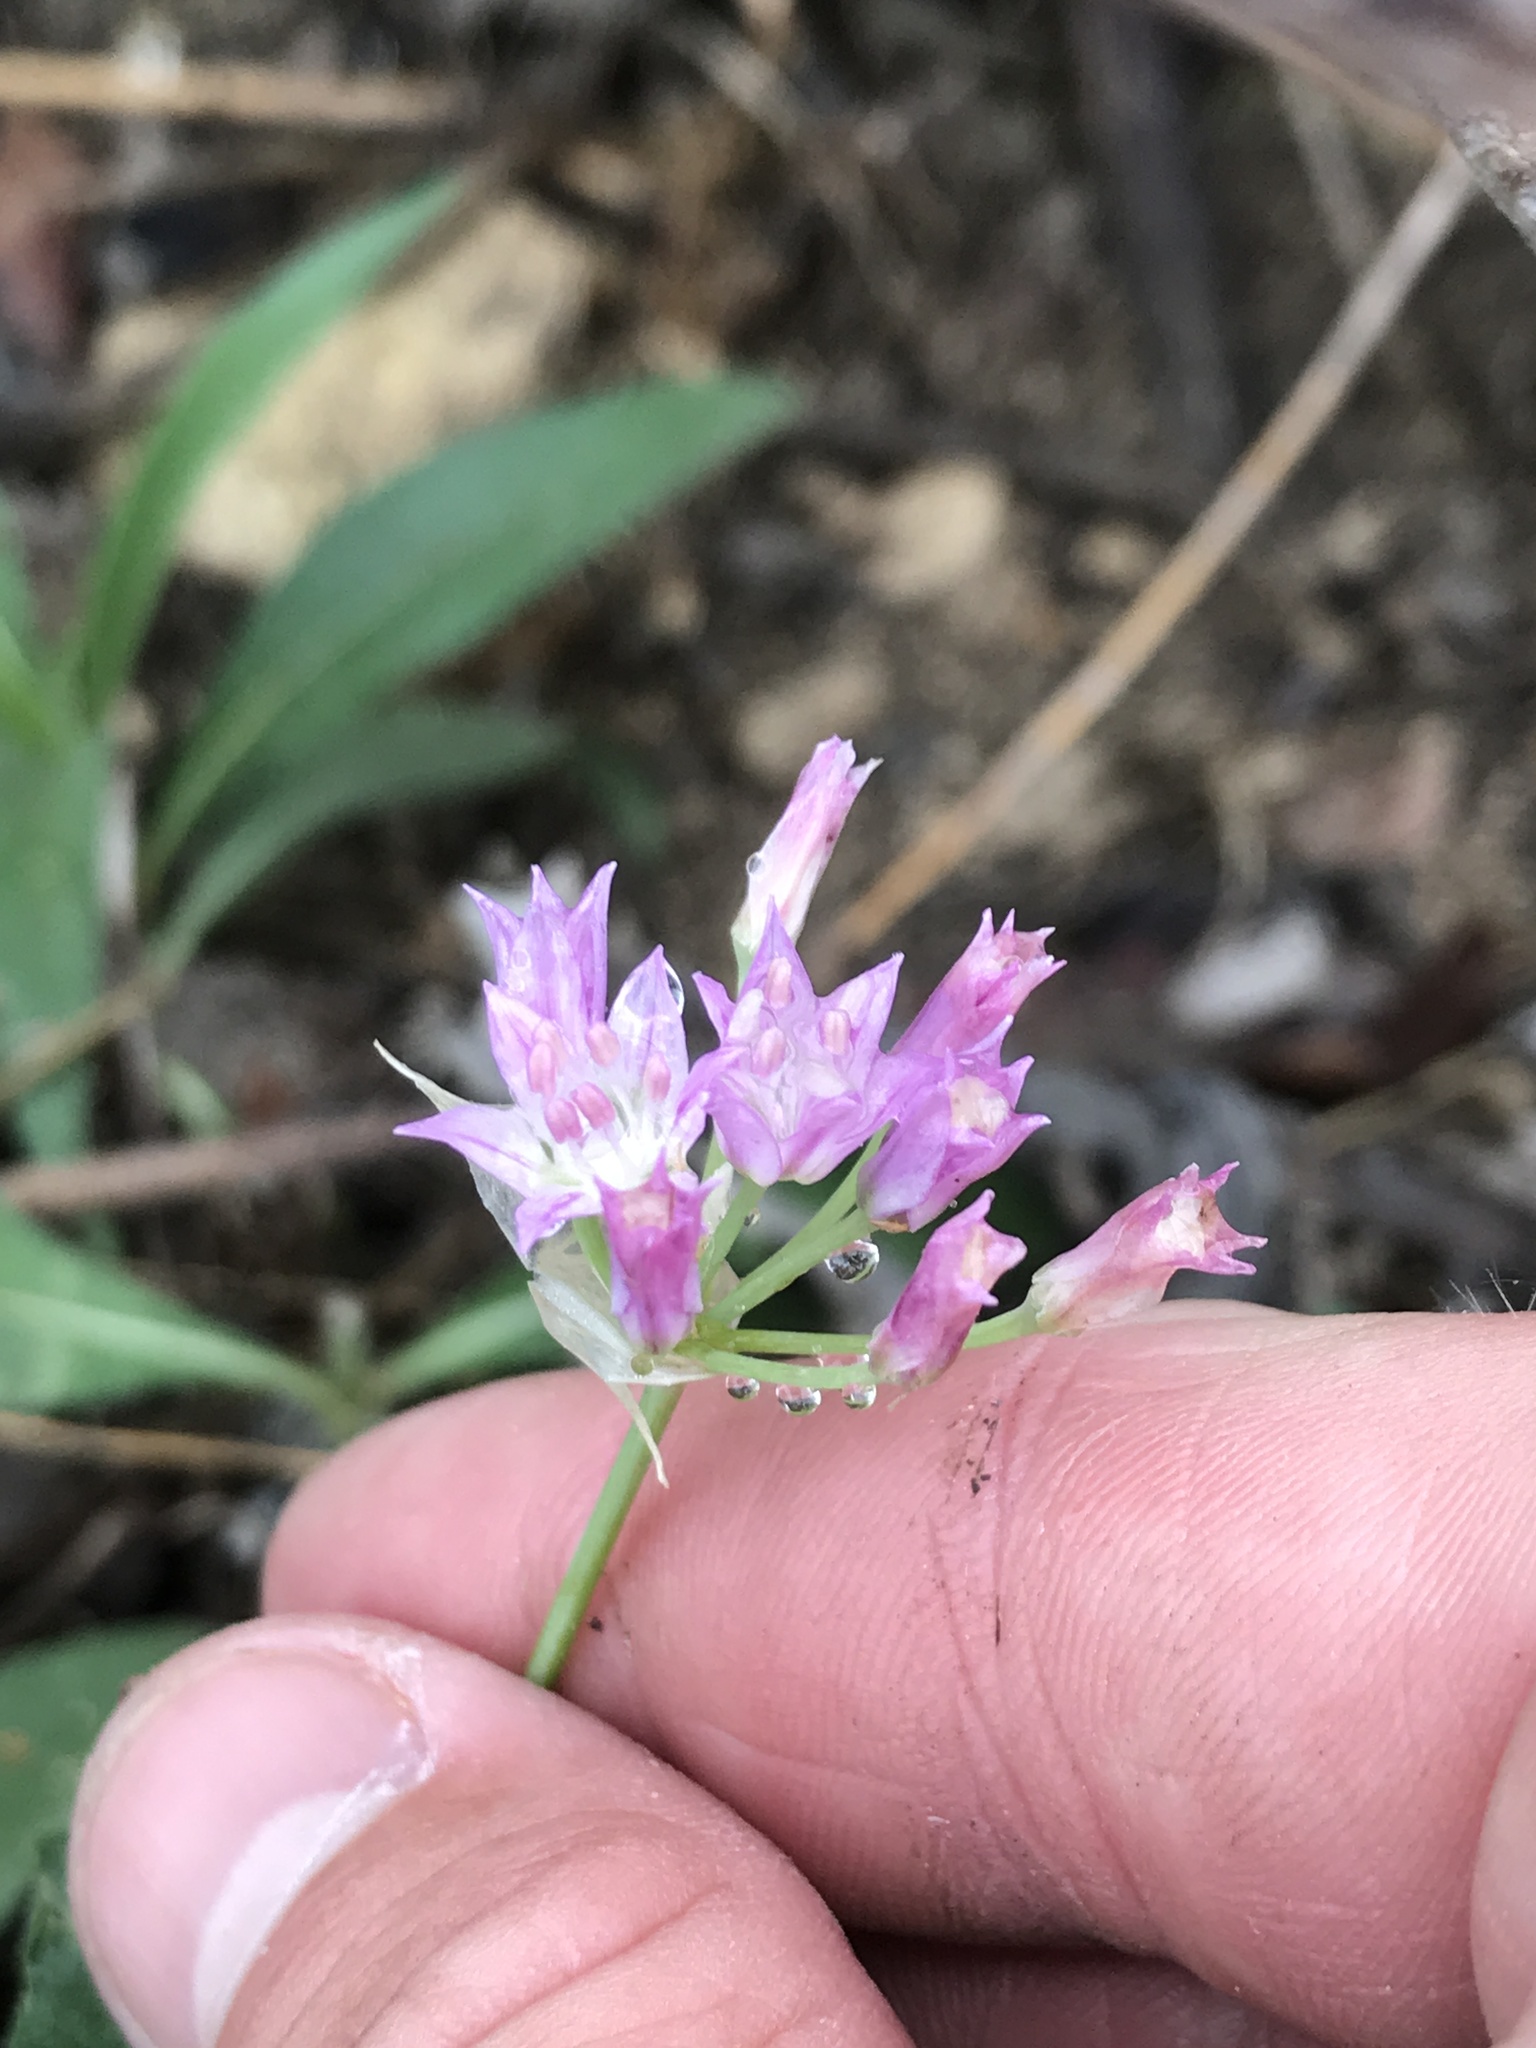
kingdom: Plantae
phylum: Tracheophyta
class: Liliopsida
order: Asparagales
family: Amaryllidaceae
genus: Allium
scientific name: Allium drummondii
